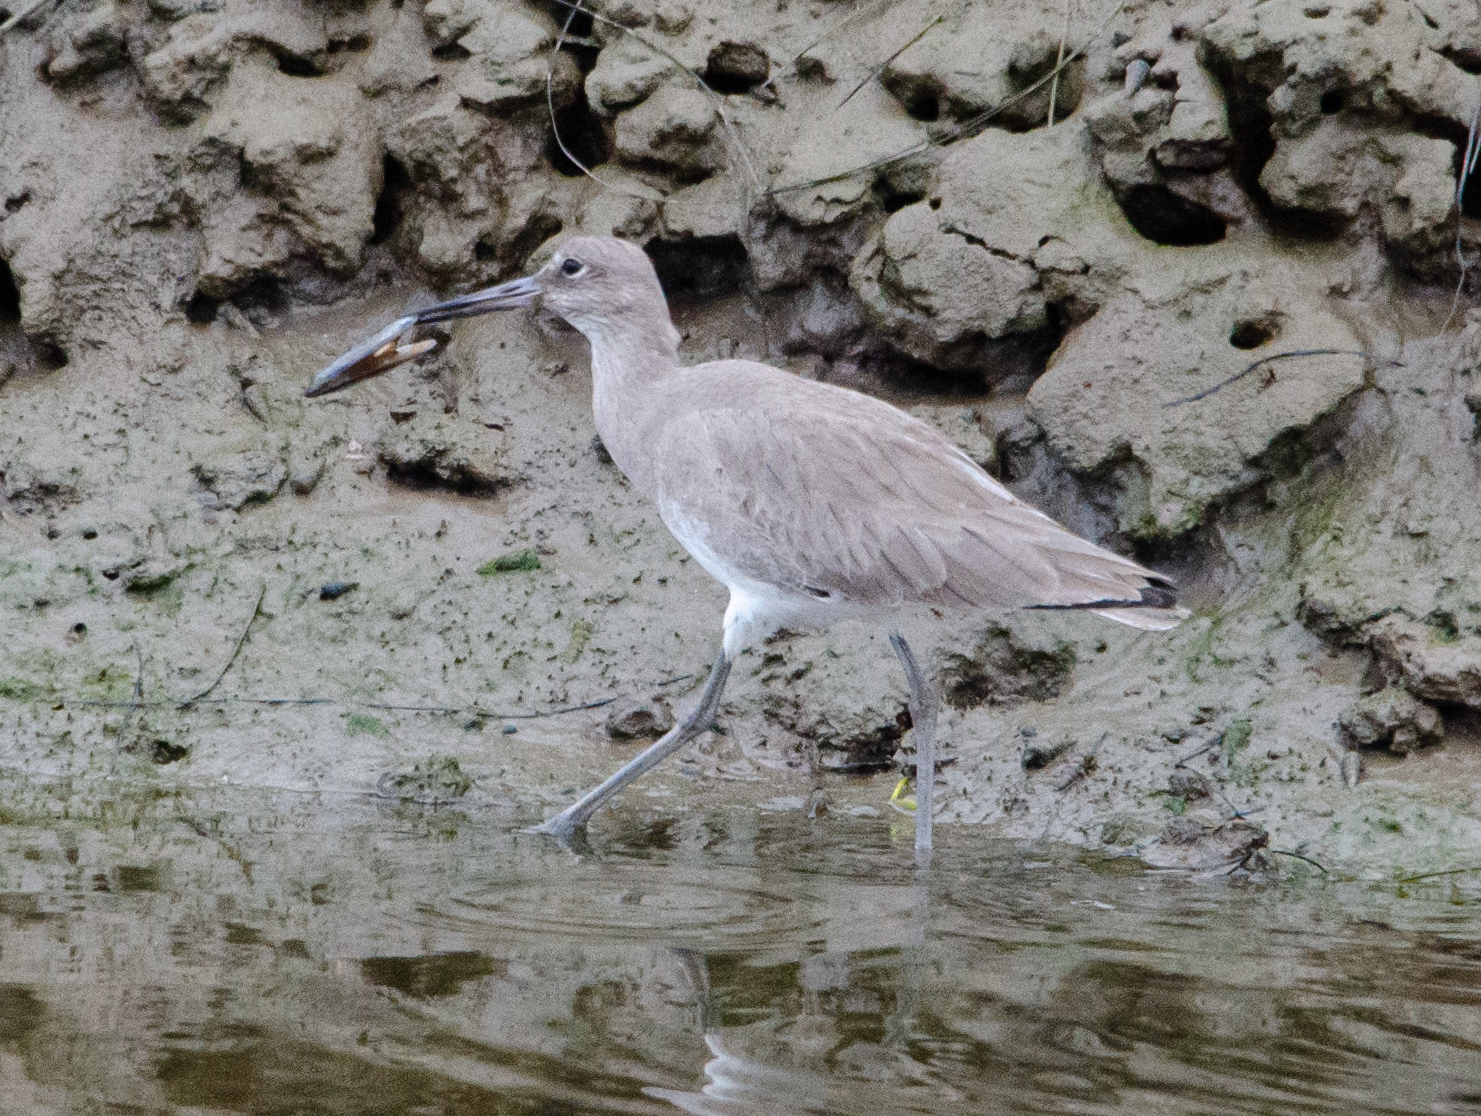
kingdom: Animalia
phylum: Chordata
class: Aves
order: Charadriiformes
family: Scolopacidae
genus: Tringa
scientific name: Tringa semipalmata
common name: Willet
